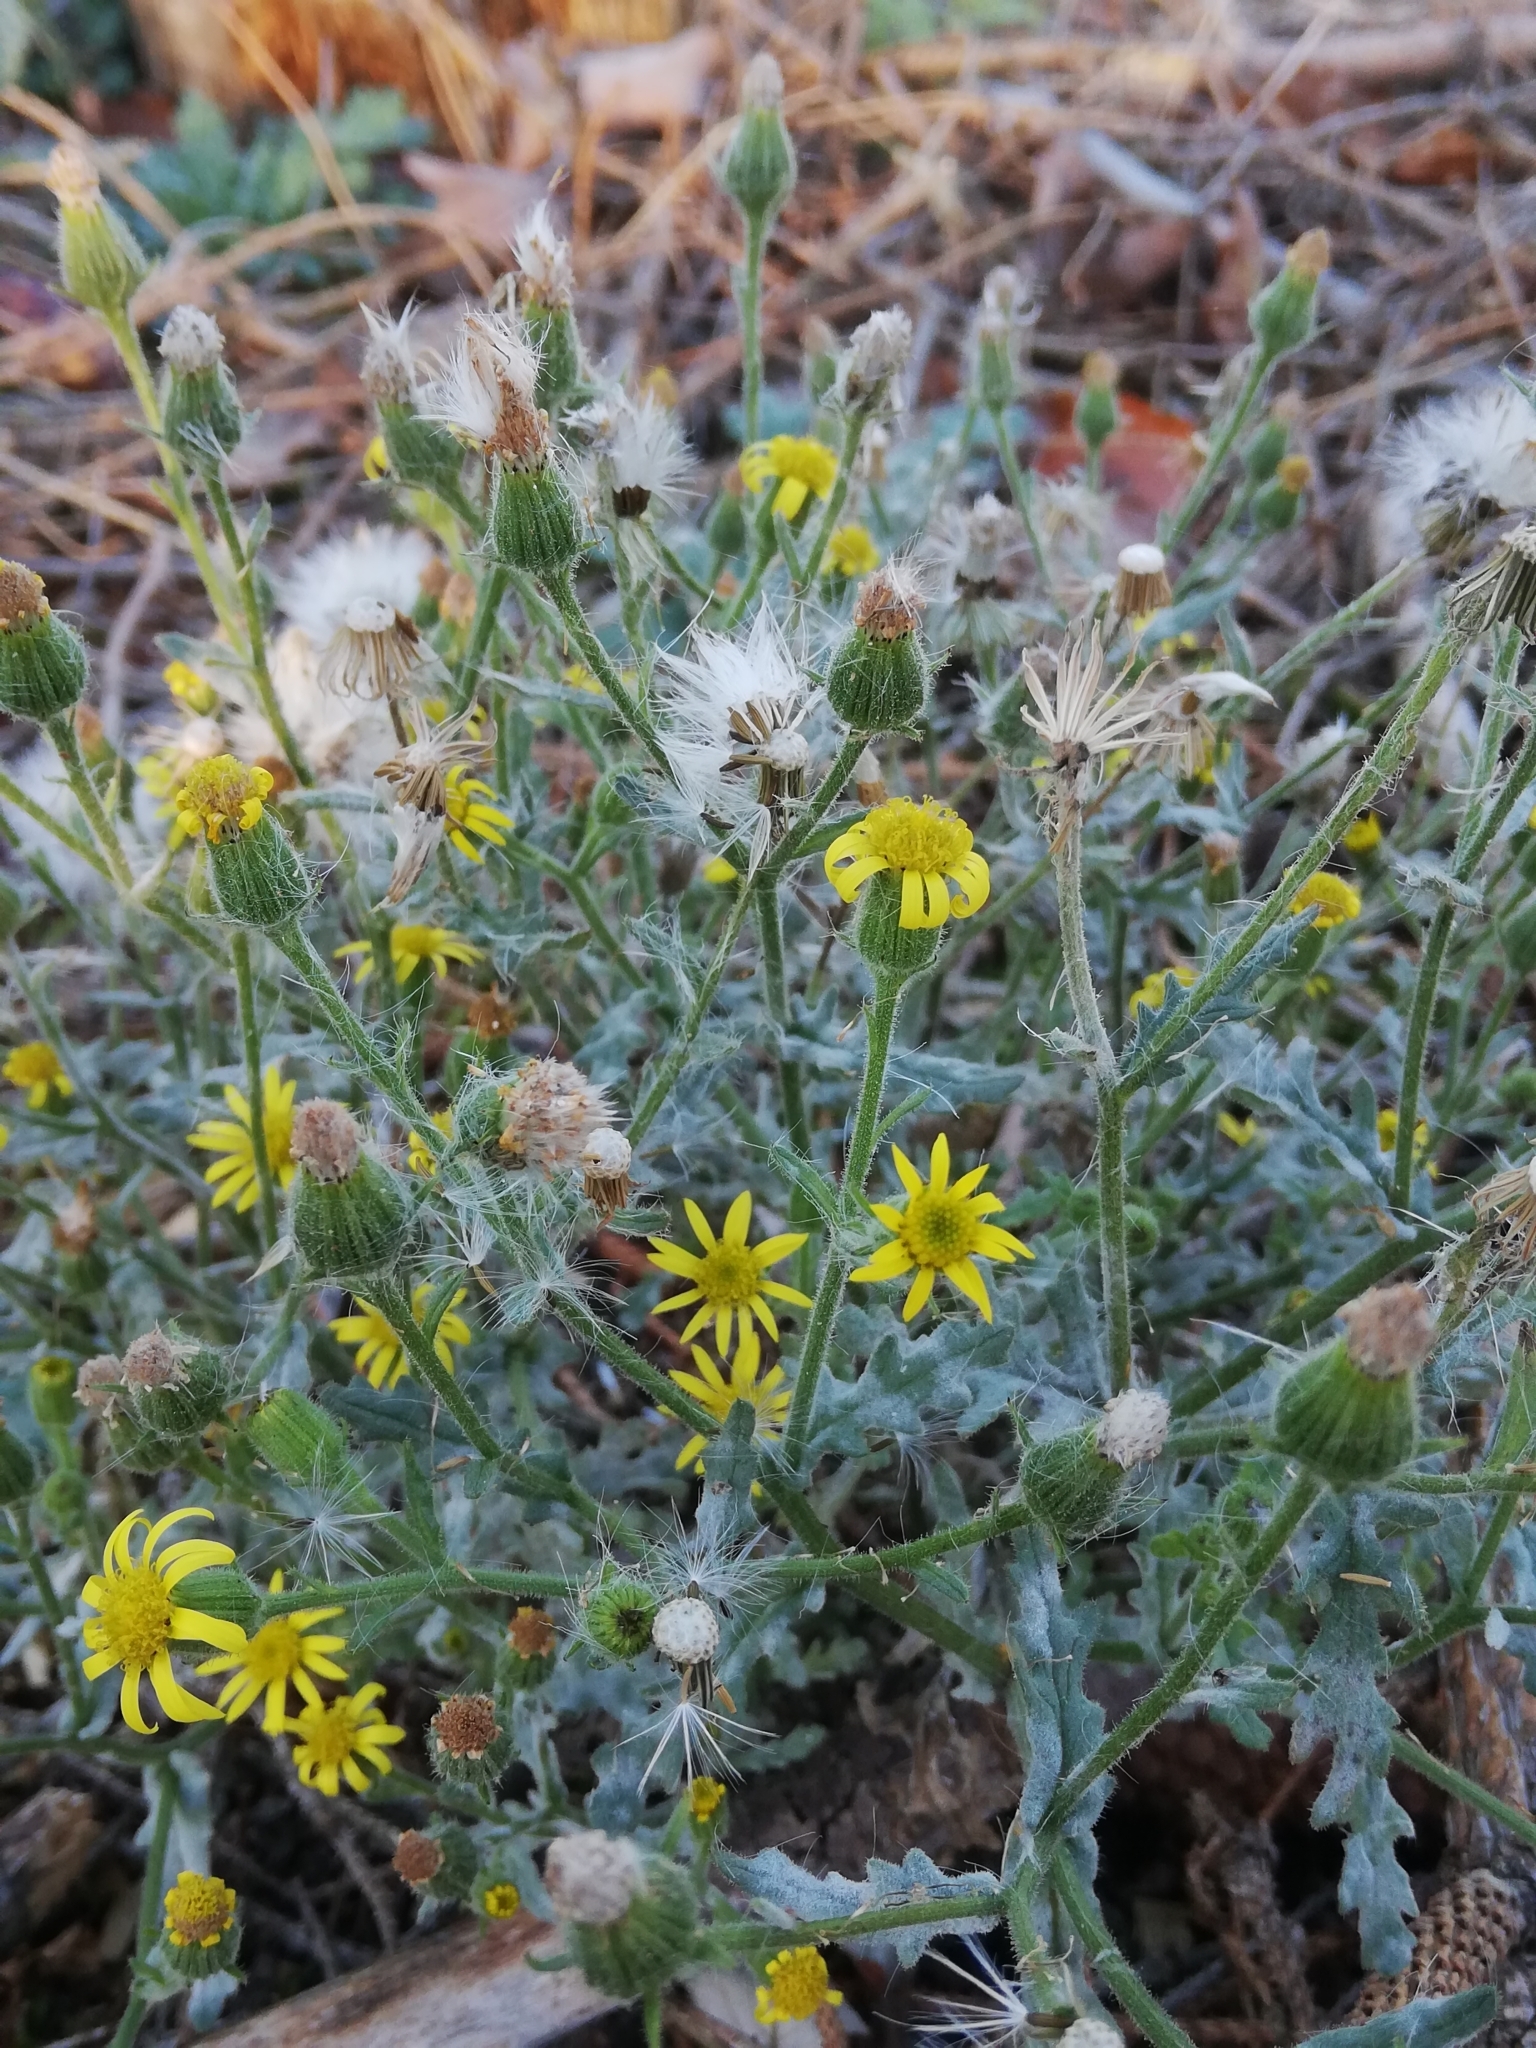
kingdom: Plantae
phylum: Tracheophyta
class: Magnoliopsida
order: Asterales
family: Asteraceae
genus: Senecio
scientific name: Senecio viscosus
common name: Sticky groundsel
